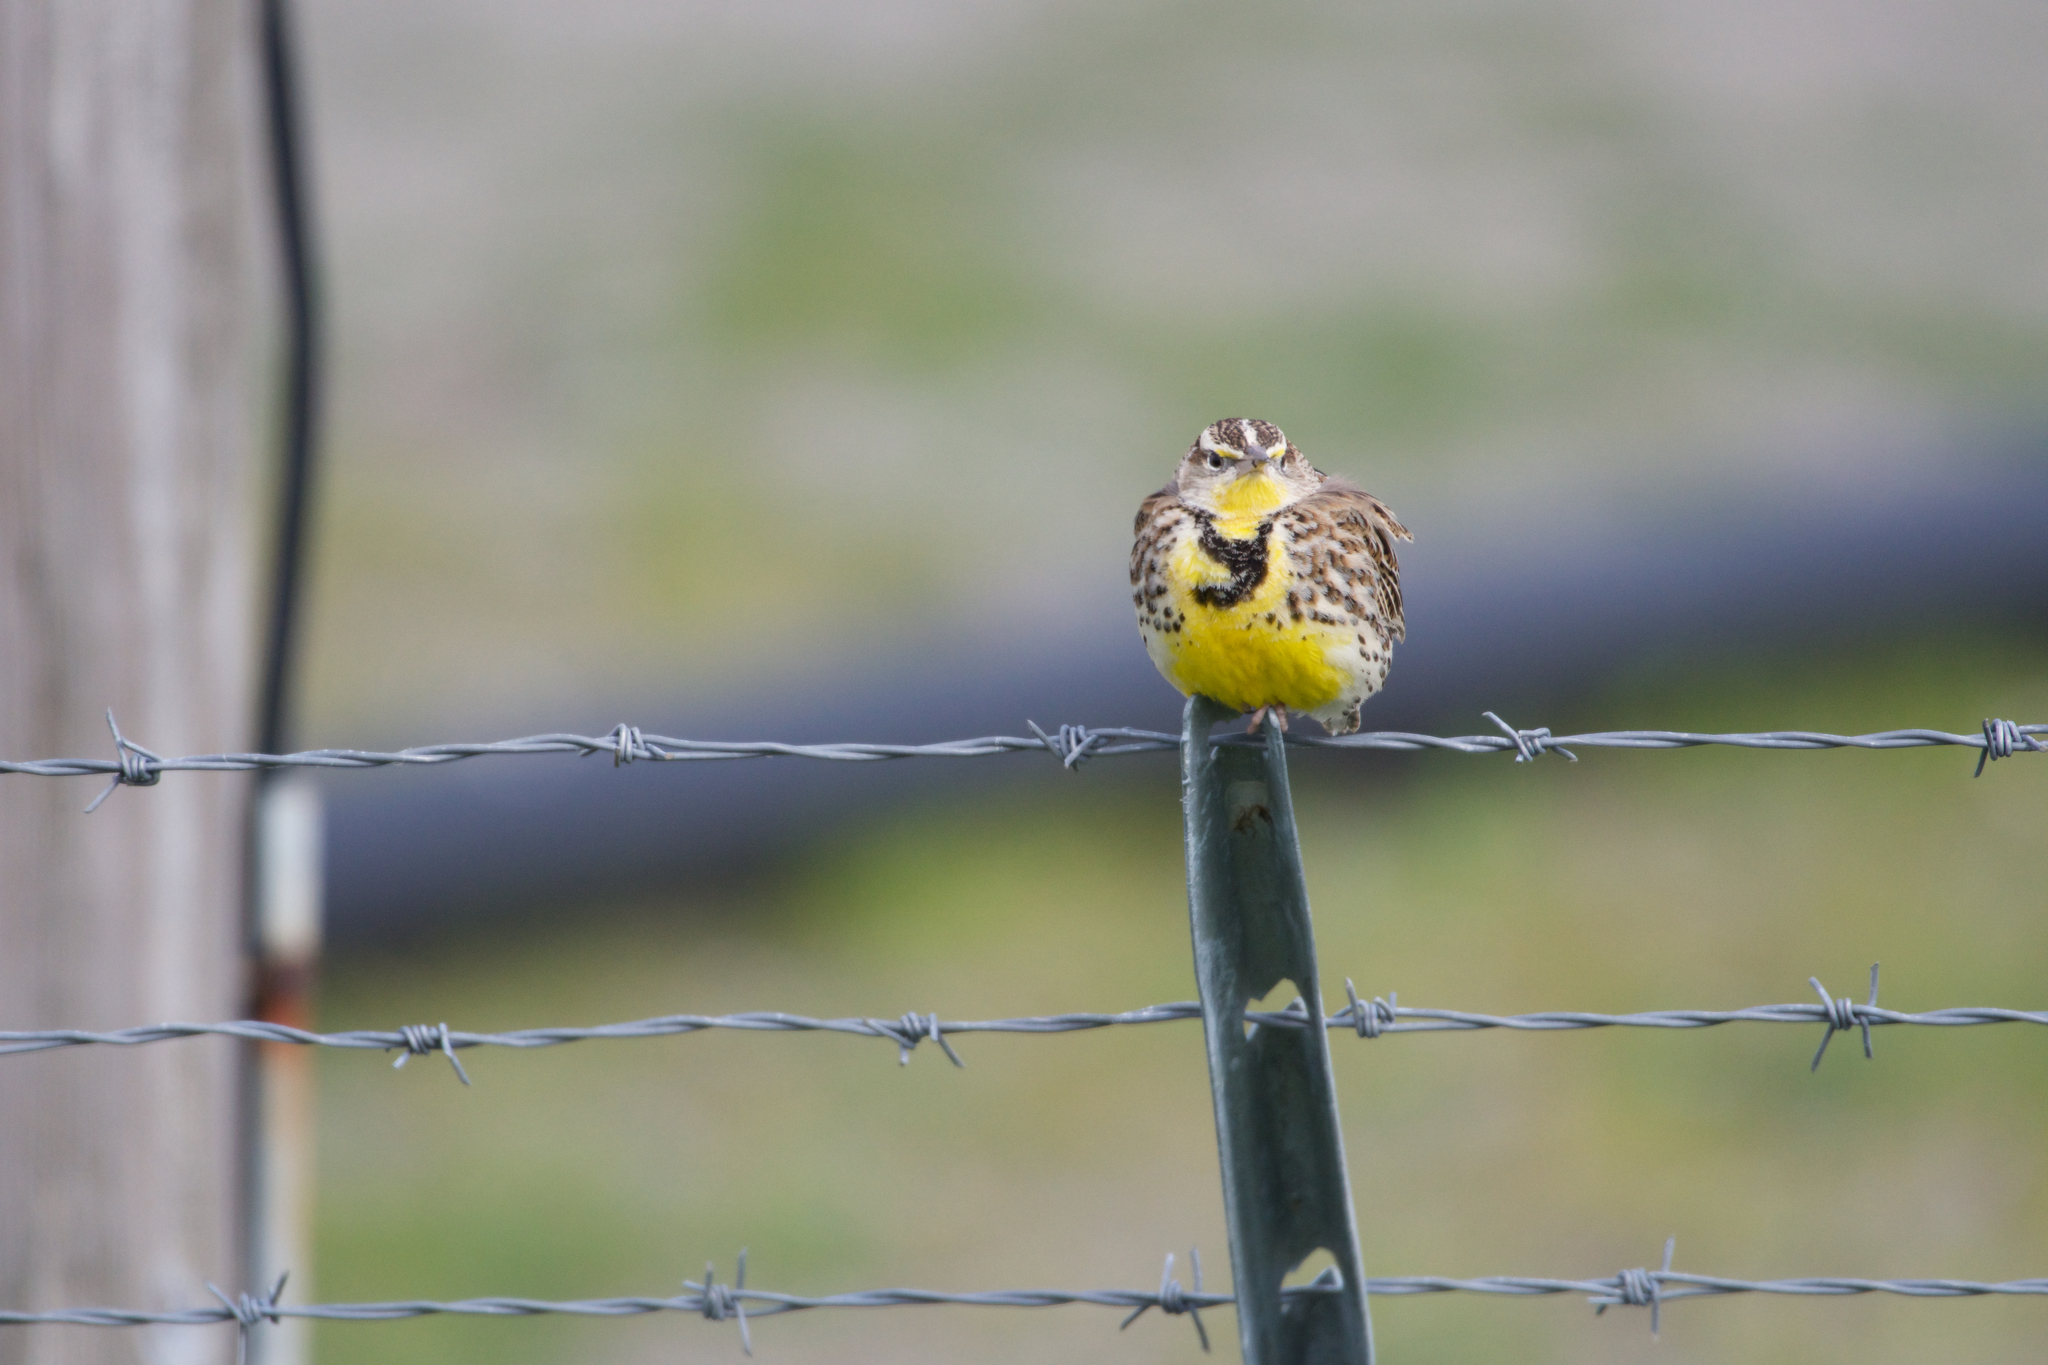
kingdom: Animalia
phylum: Chordata
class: Aves
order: Passeriformes
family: Icteridae
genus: Sturnella
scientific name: Sturnella neglecta
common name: Western meadowlark
